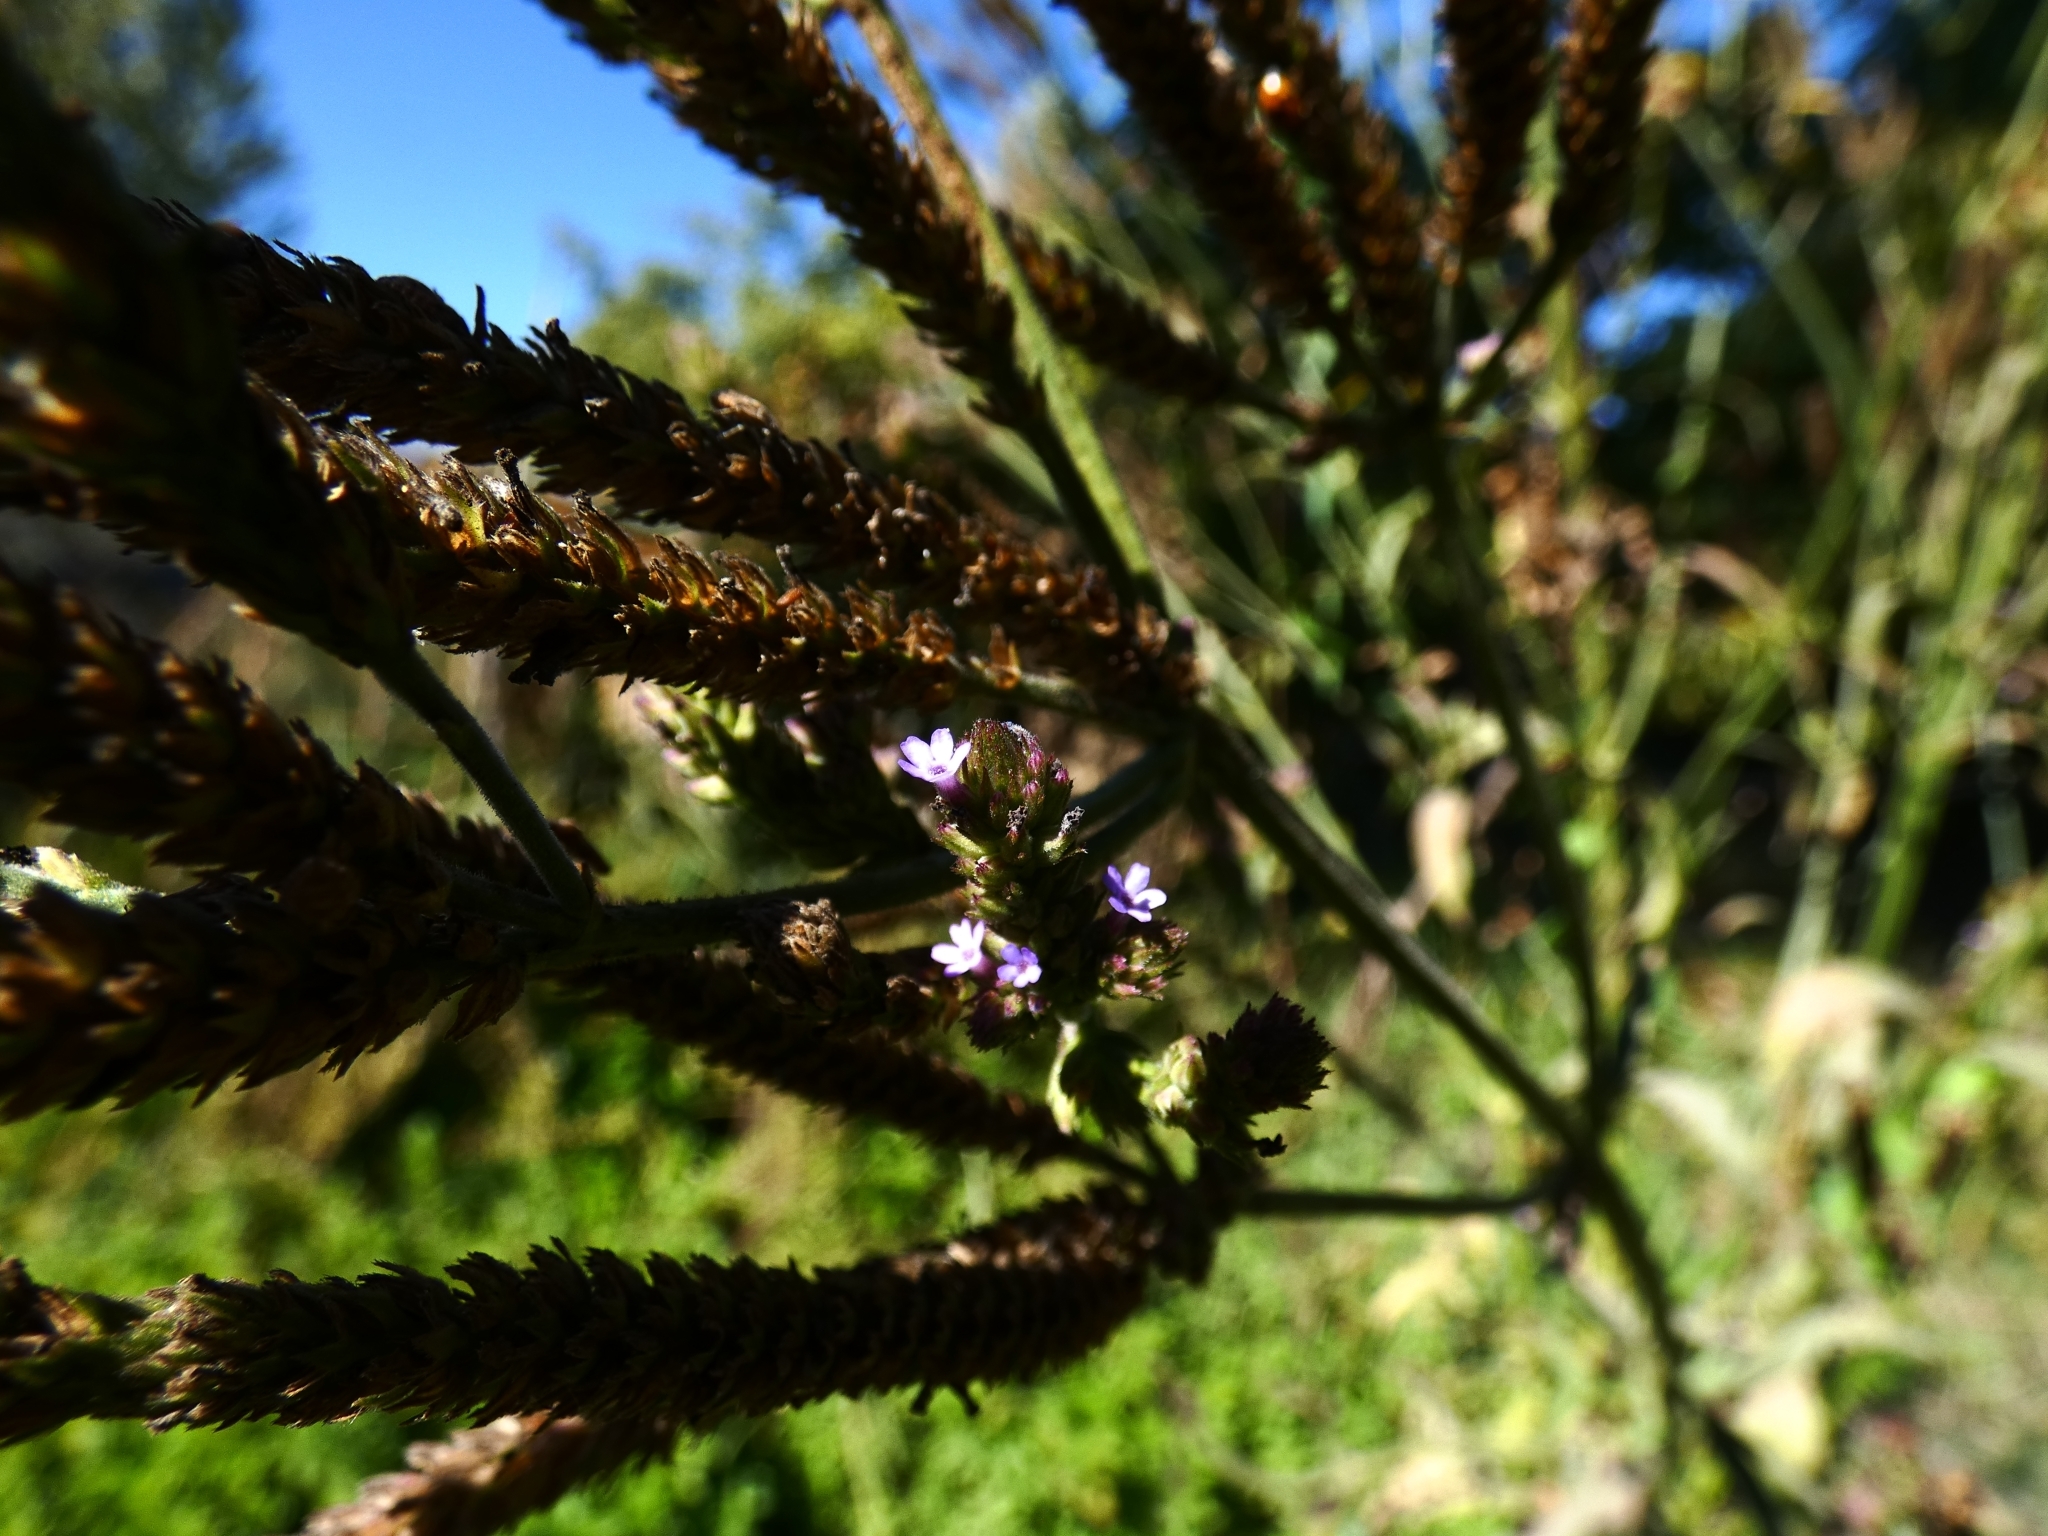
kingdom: Plantae
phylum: Tracheophyta
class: Magnoliopsida
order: Lamiales
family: Verbenaceae
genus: Verbena
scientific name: Verbena litoralis
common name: Seashore vervain
